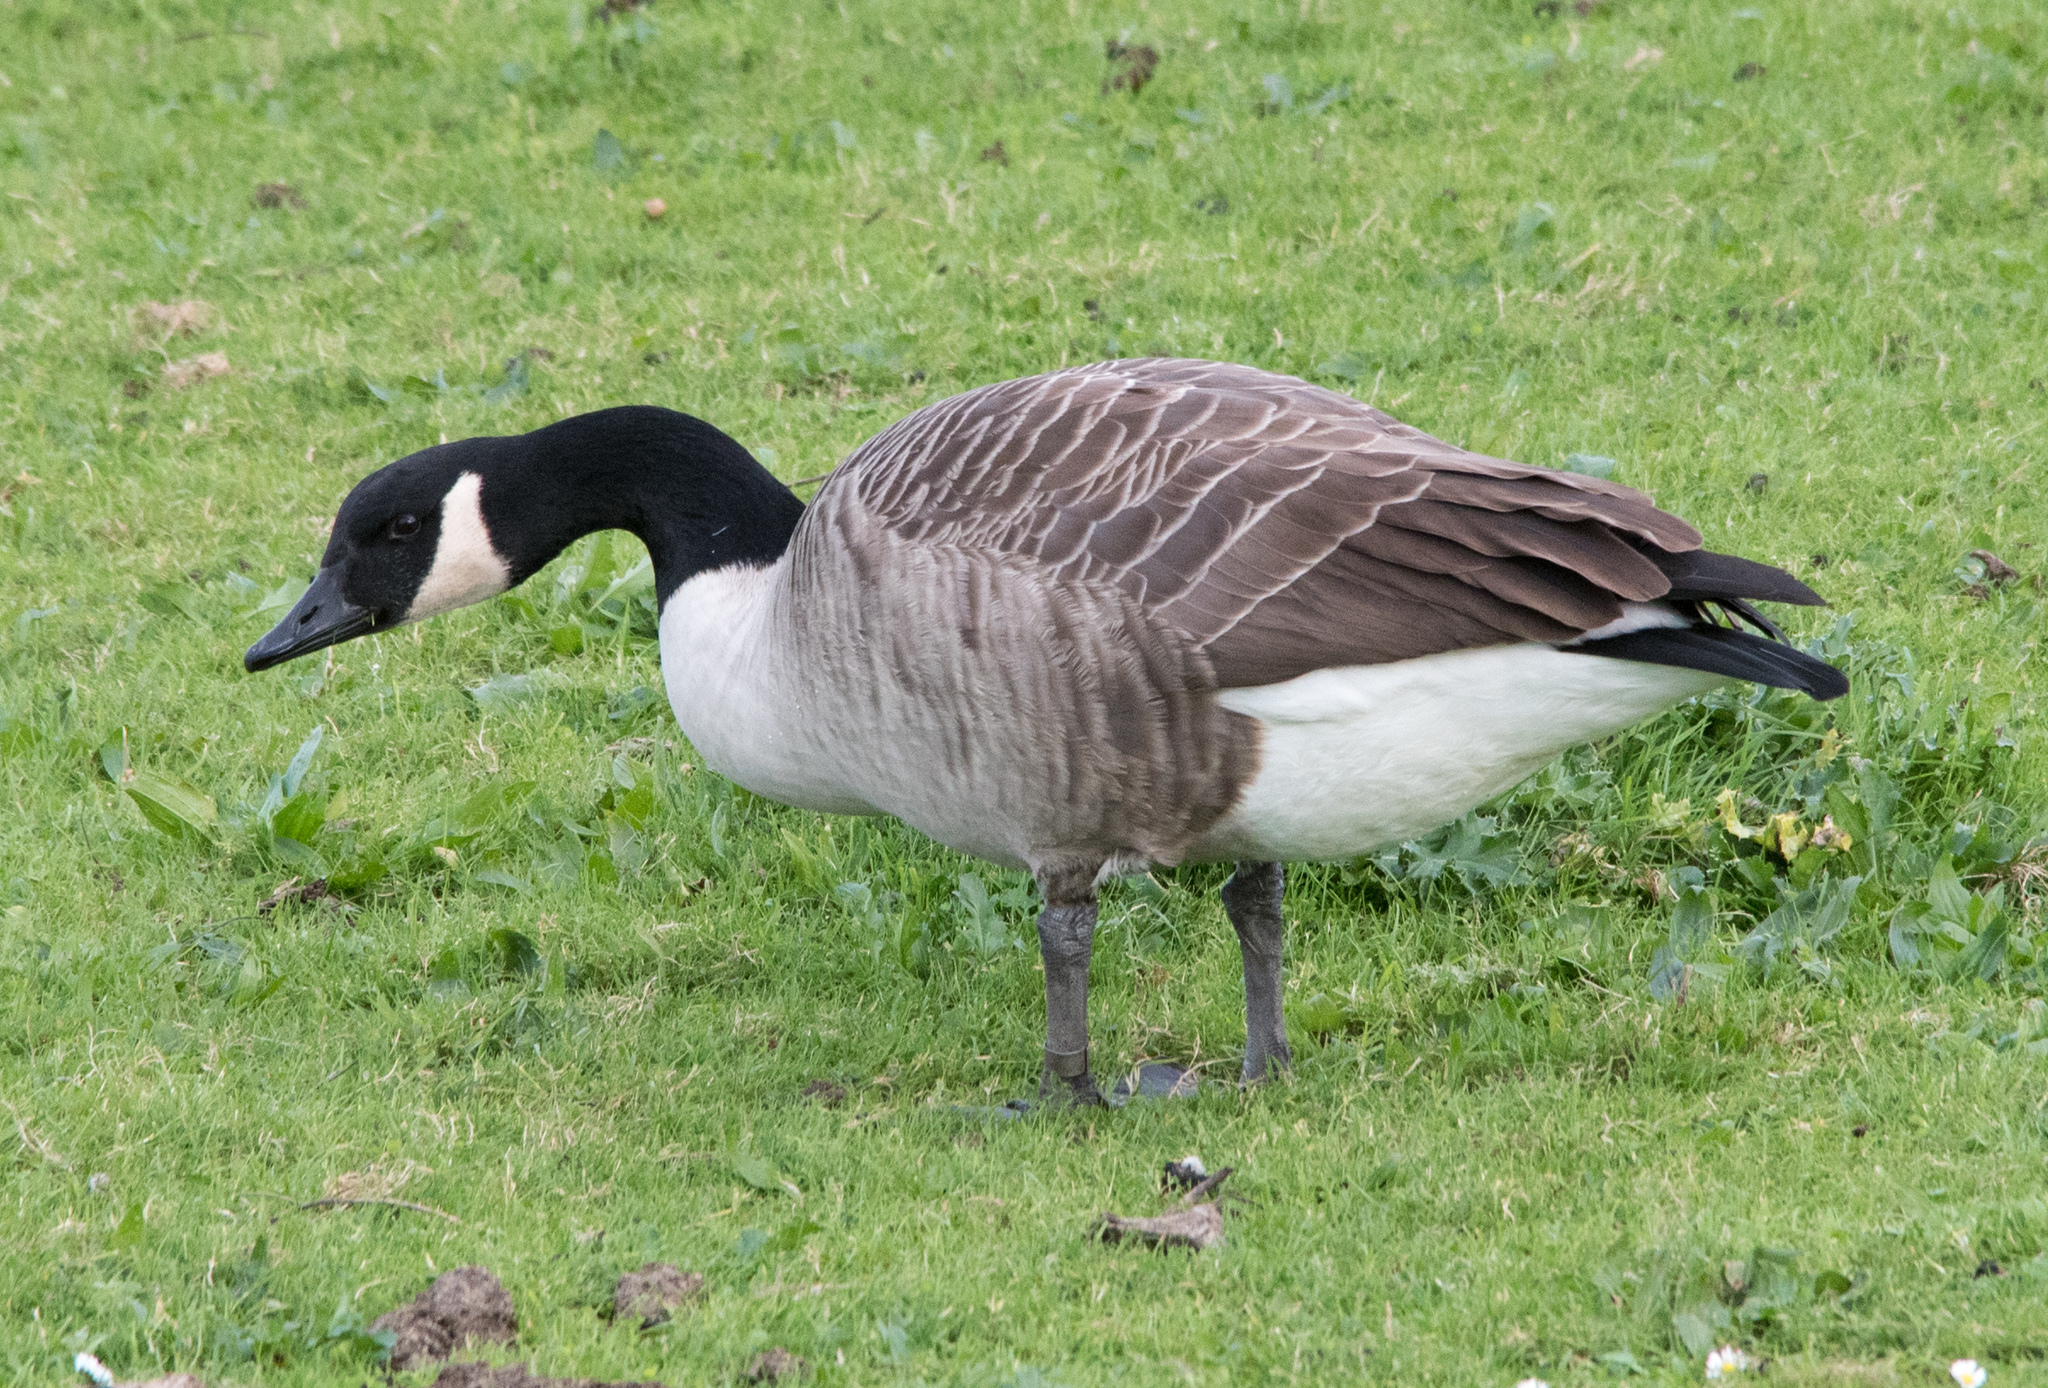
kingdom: Animalia
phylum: Chordata
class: Aves
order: Anseriformes
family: Anatidae
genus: Branta
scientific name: Branta canadensis
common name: Canada goose
